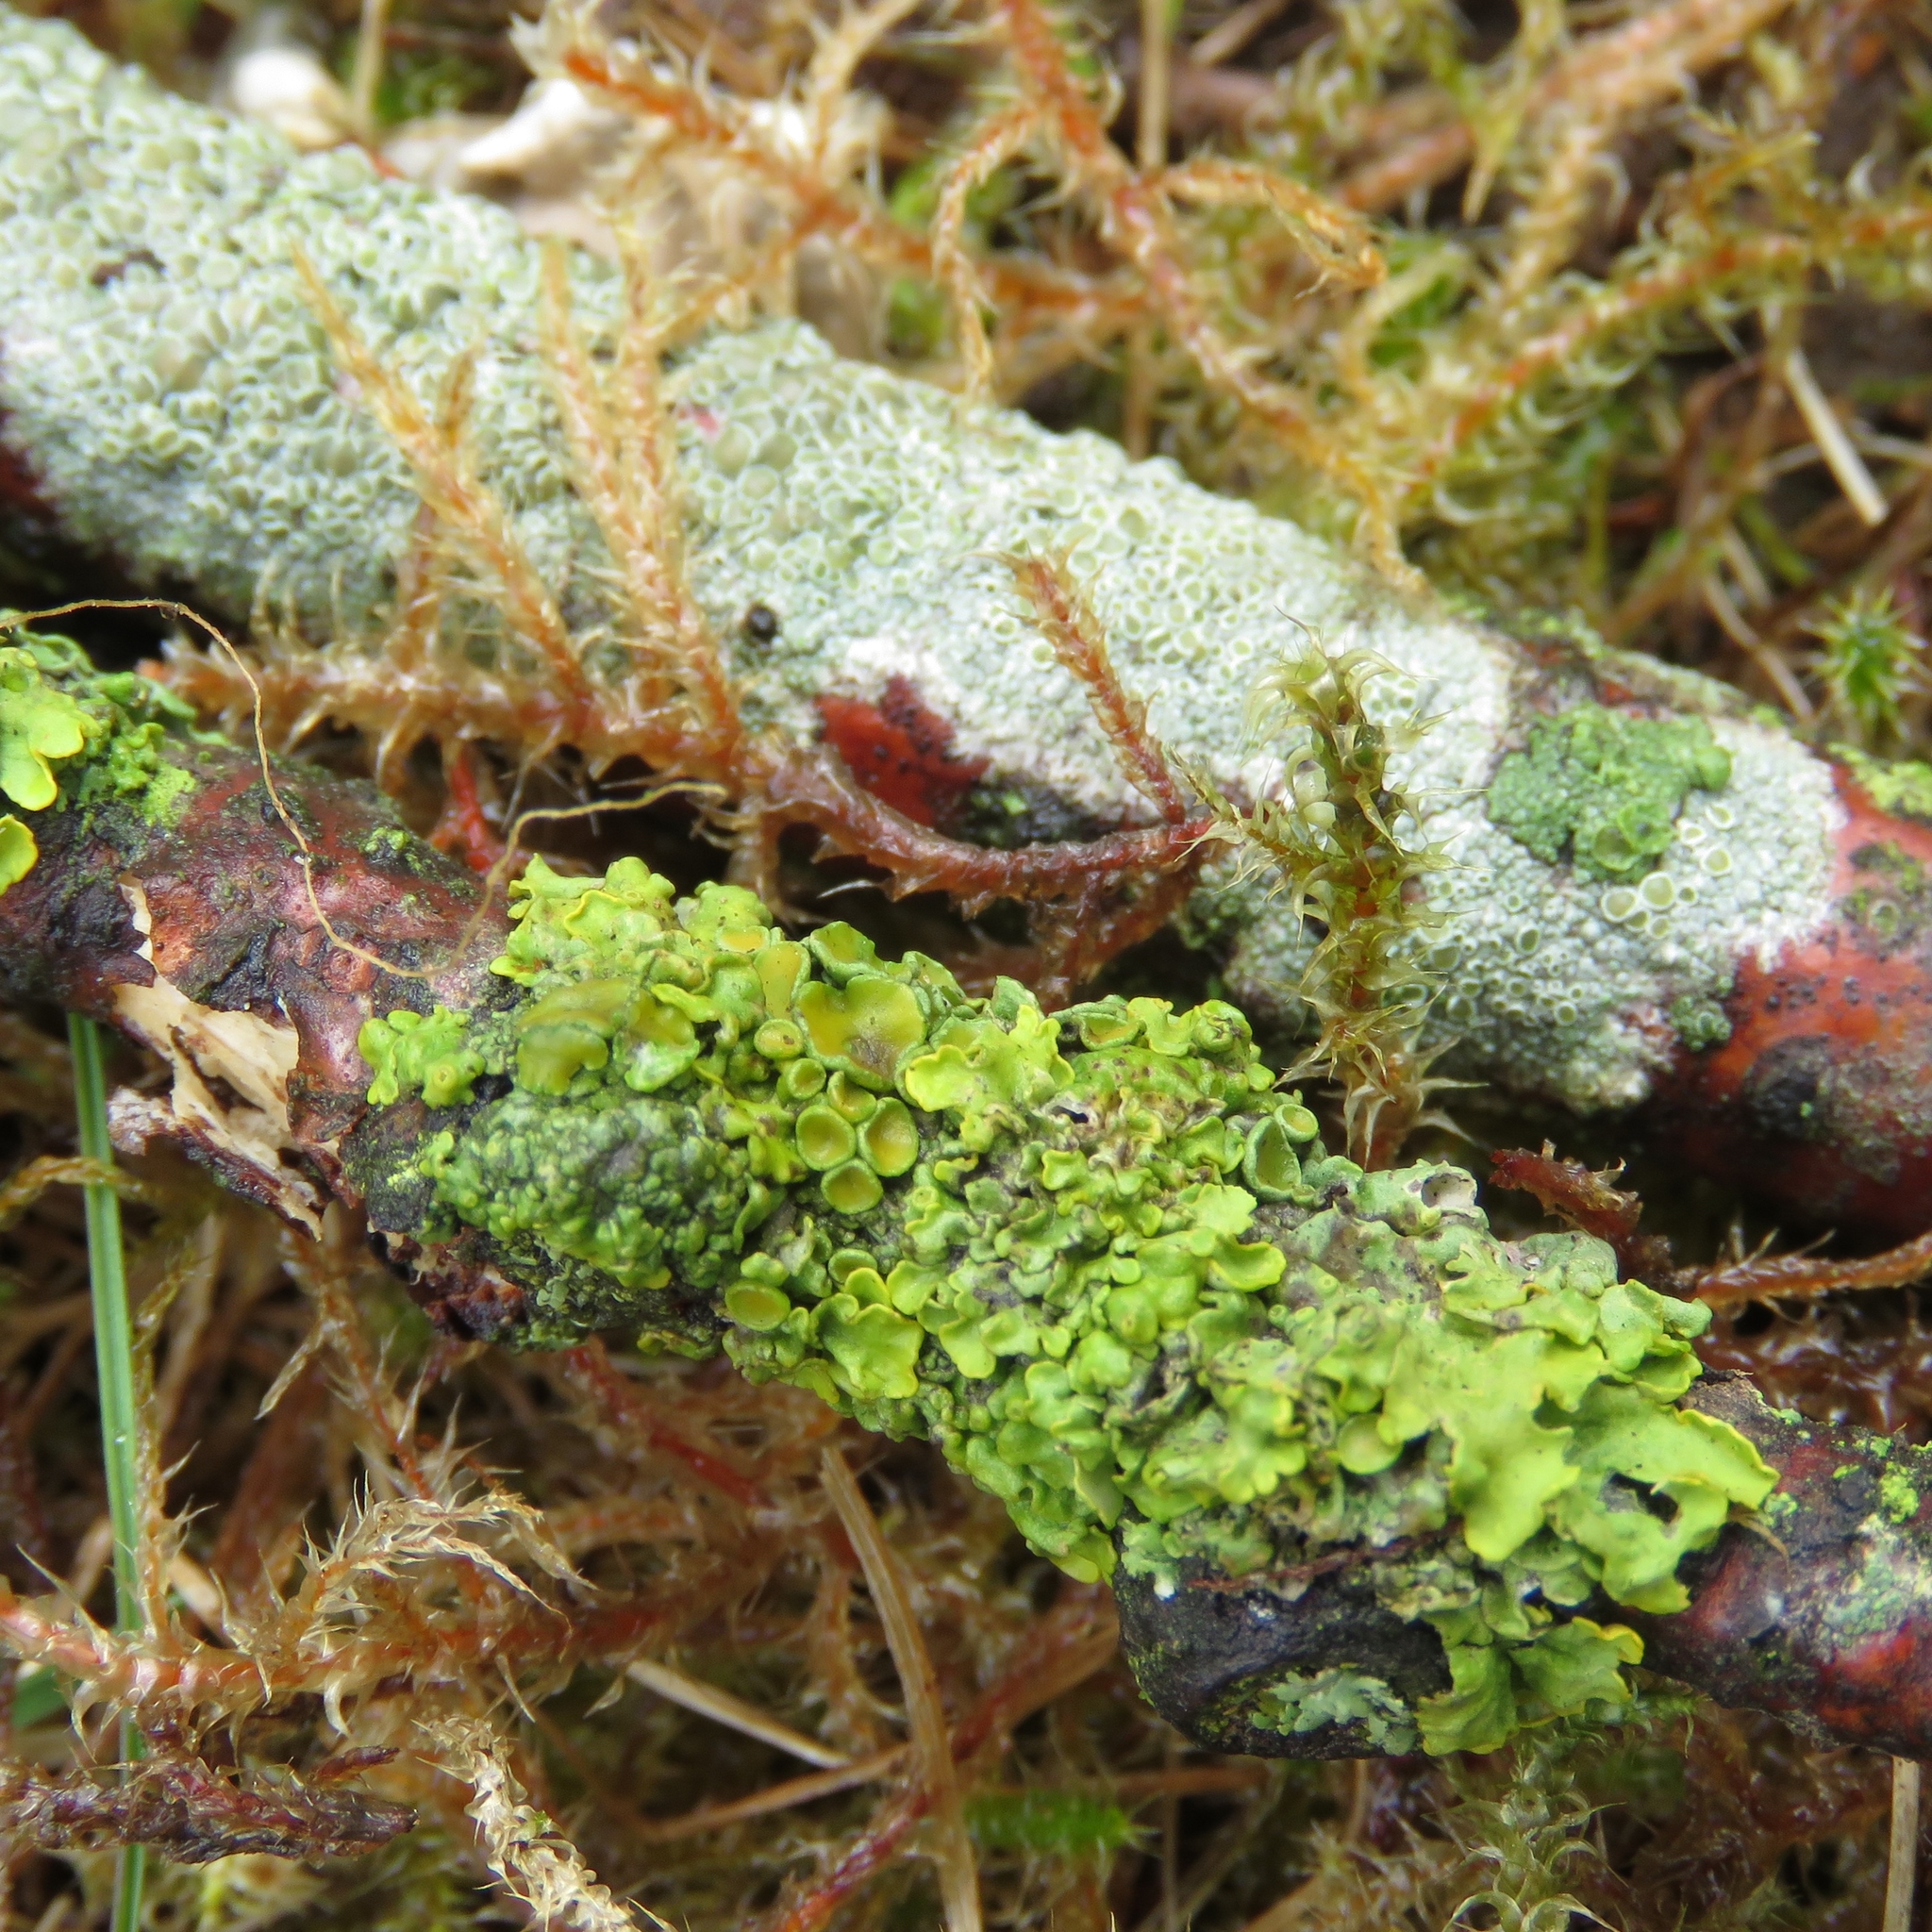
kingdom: Fungi
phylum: Ascomycota
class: Lecanoromycetes
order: Teloschistales
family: Teloschistaceae
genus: Xanthoria
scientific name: Xanthoria parietina
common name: Common orange lichen
